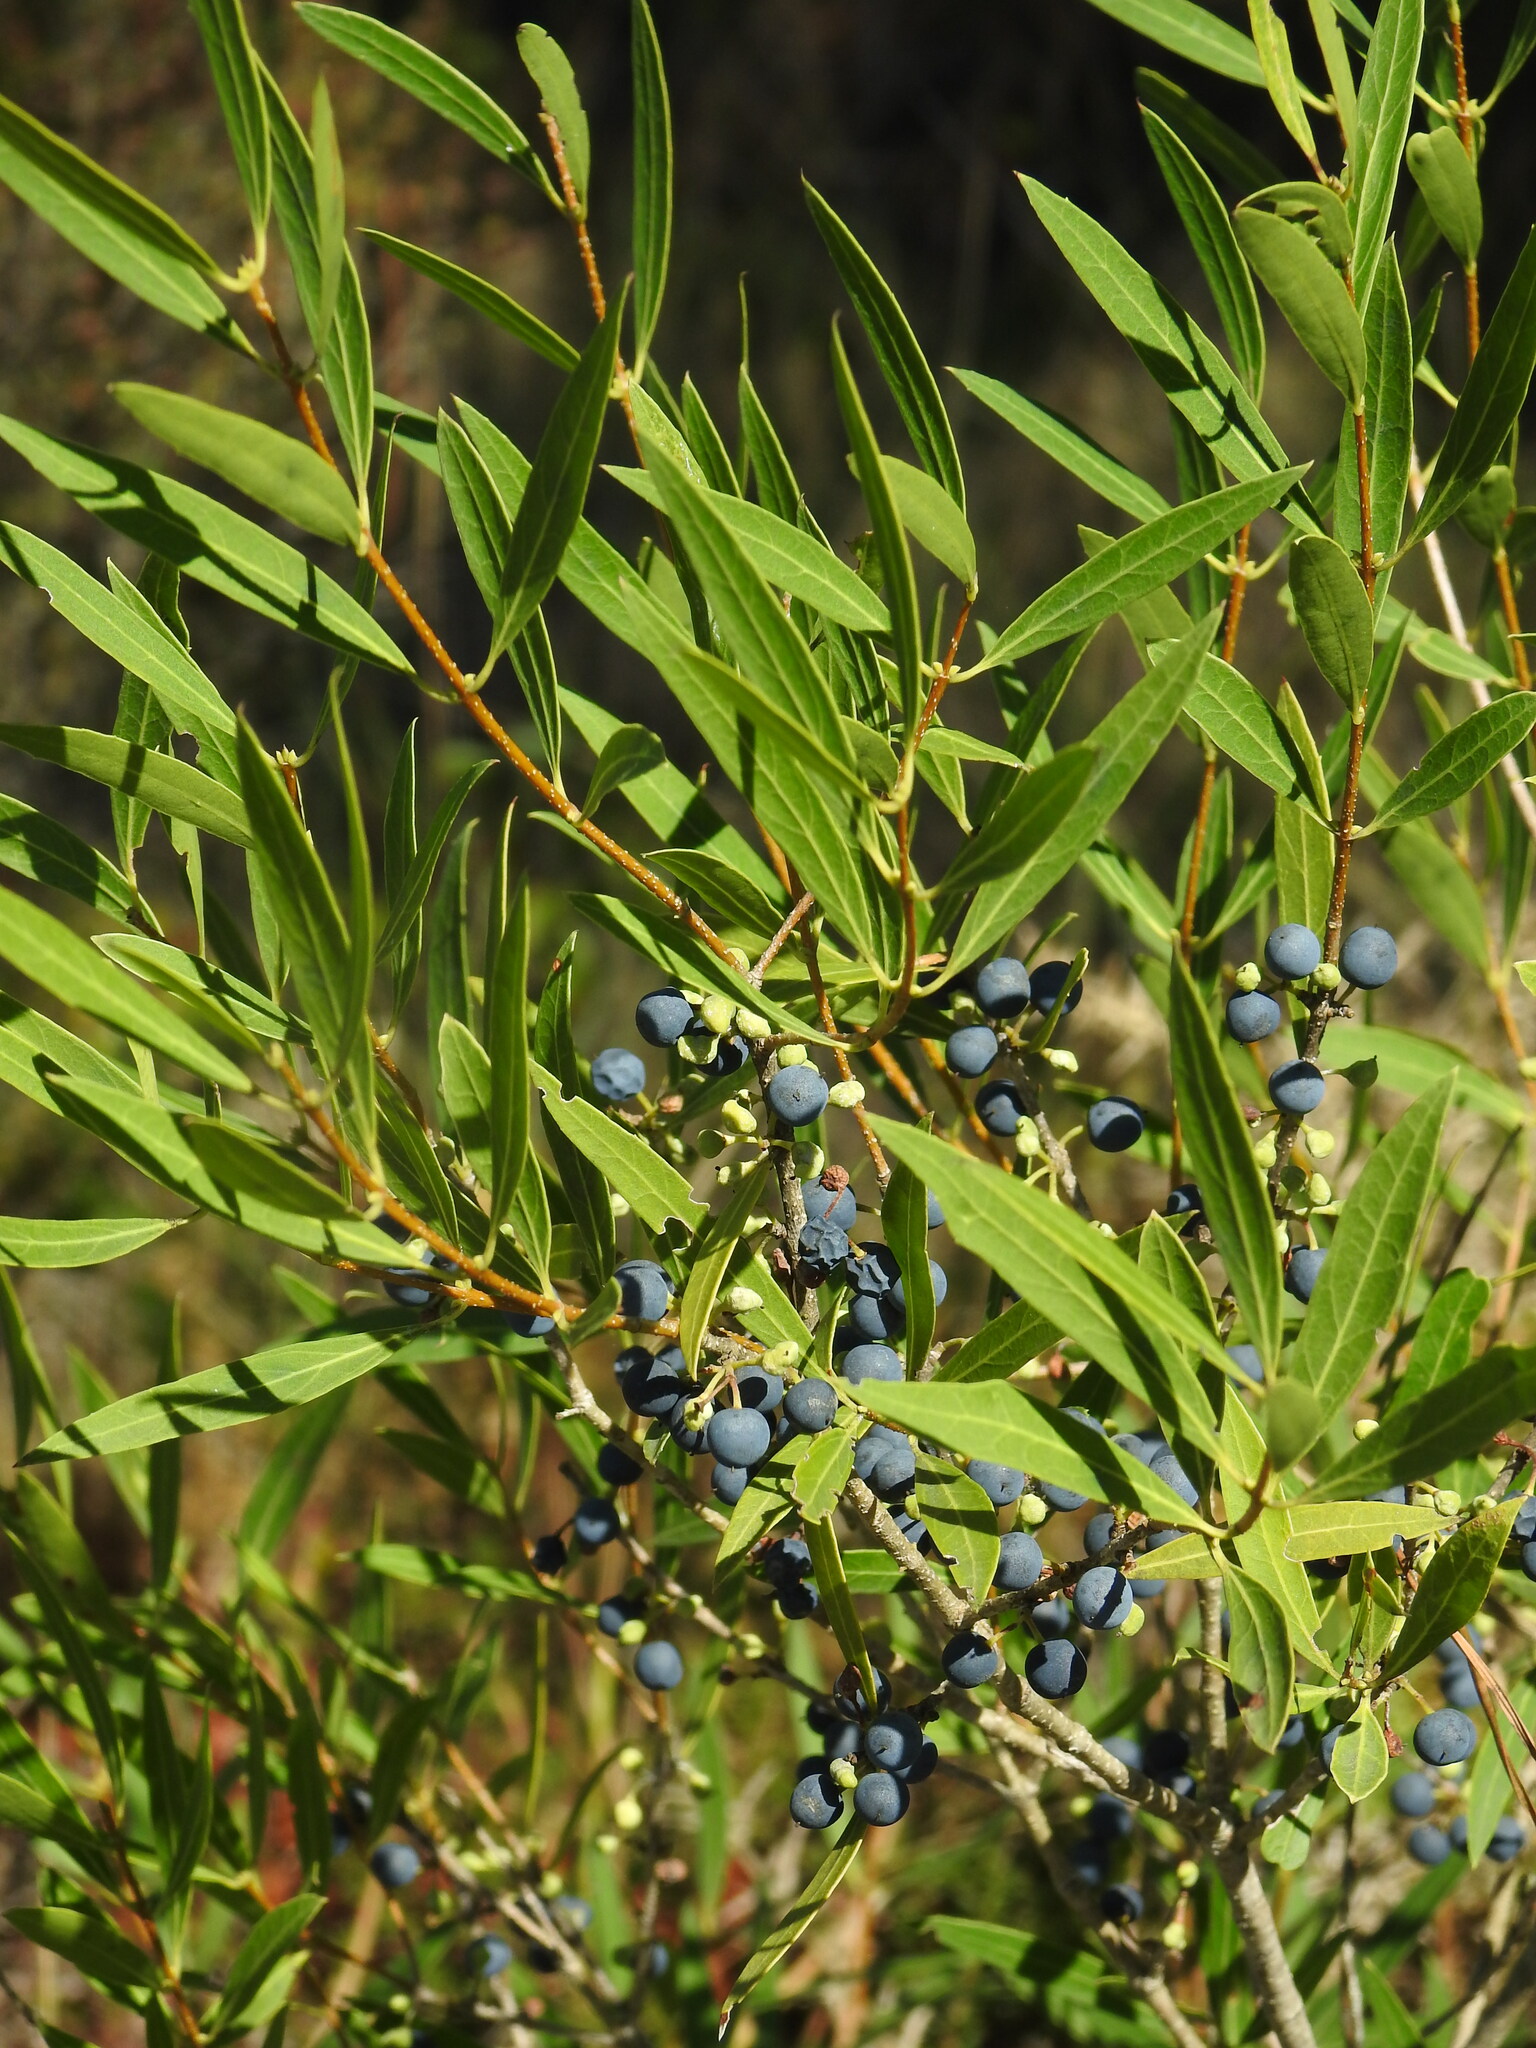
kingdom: Plantae
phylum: Tracheophyta
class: Magnoliopsida
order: Lamiales
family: Oleaceae
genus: Phillyrea
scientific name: Phillyrea angustifolia
